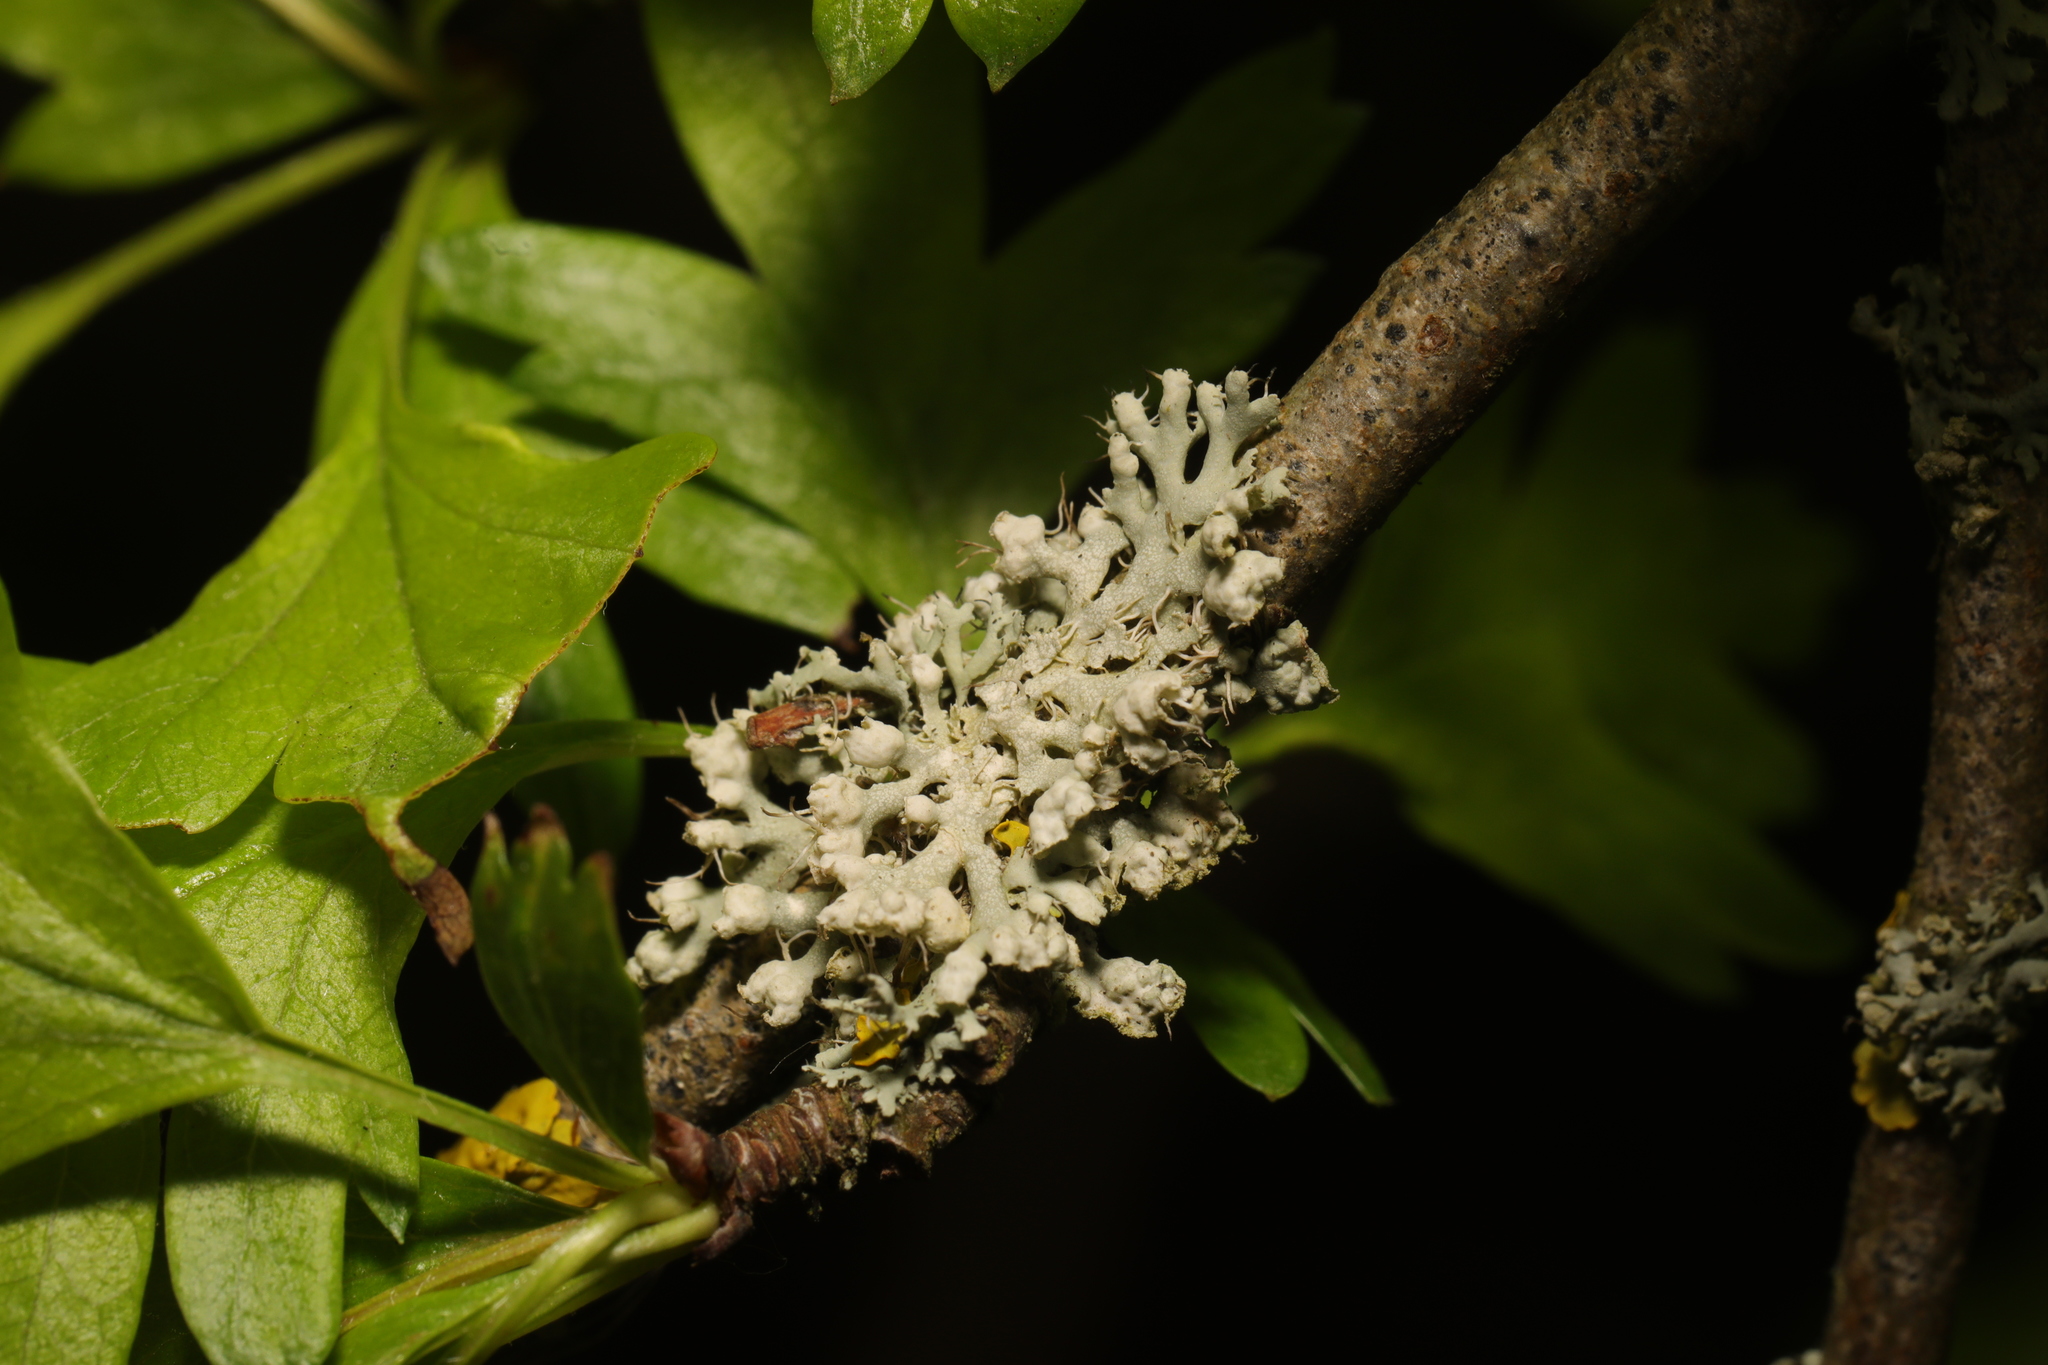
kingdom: Fungi
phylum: Ascomycota
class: Lecanoromycetes
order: Caliciales
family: Physciaceae
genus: Physcia
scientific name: Physcia adscendens
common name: Hooded rosette lichen
